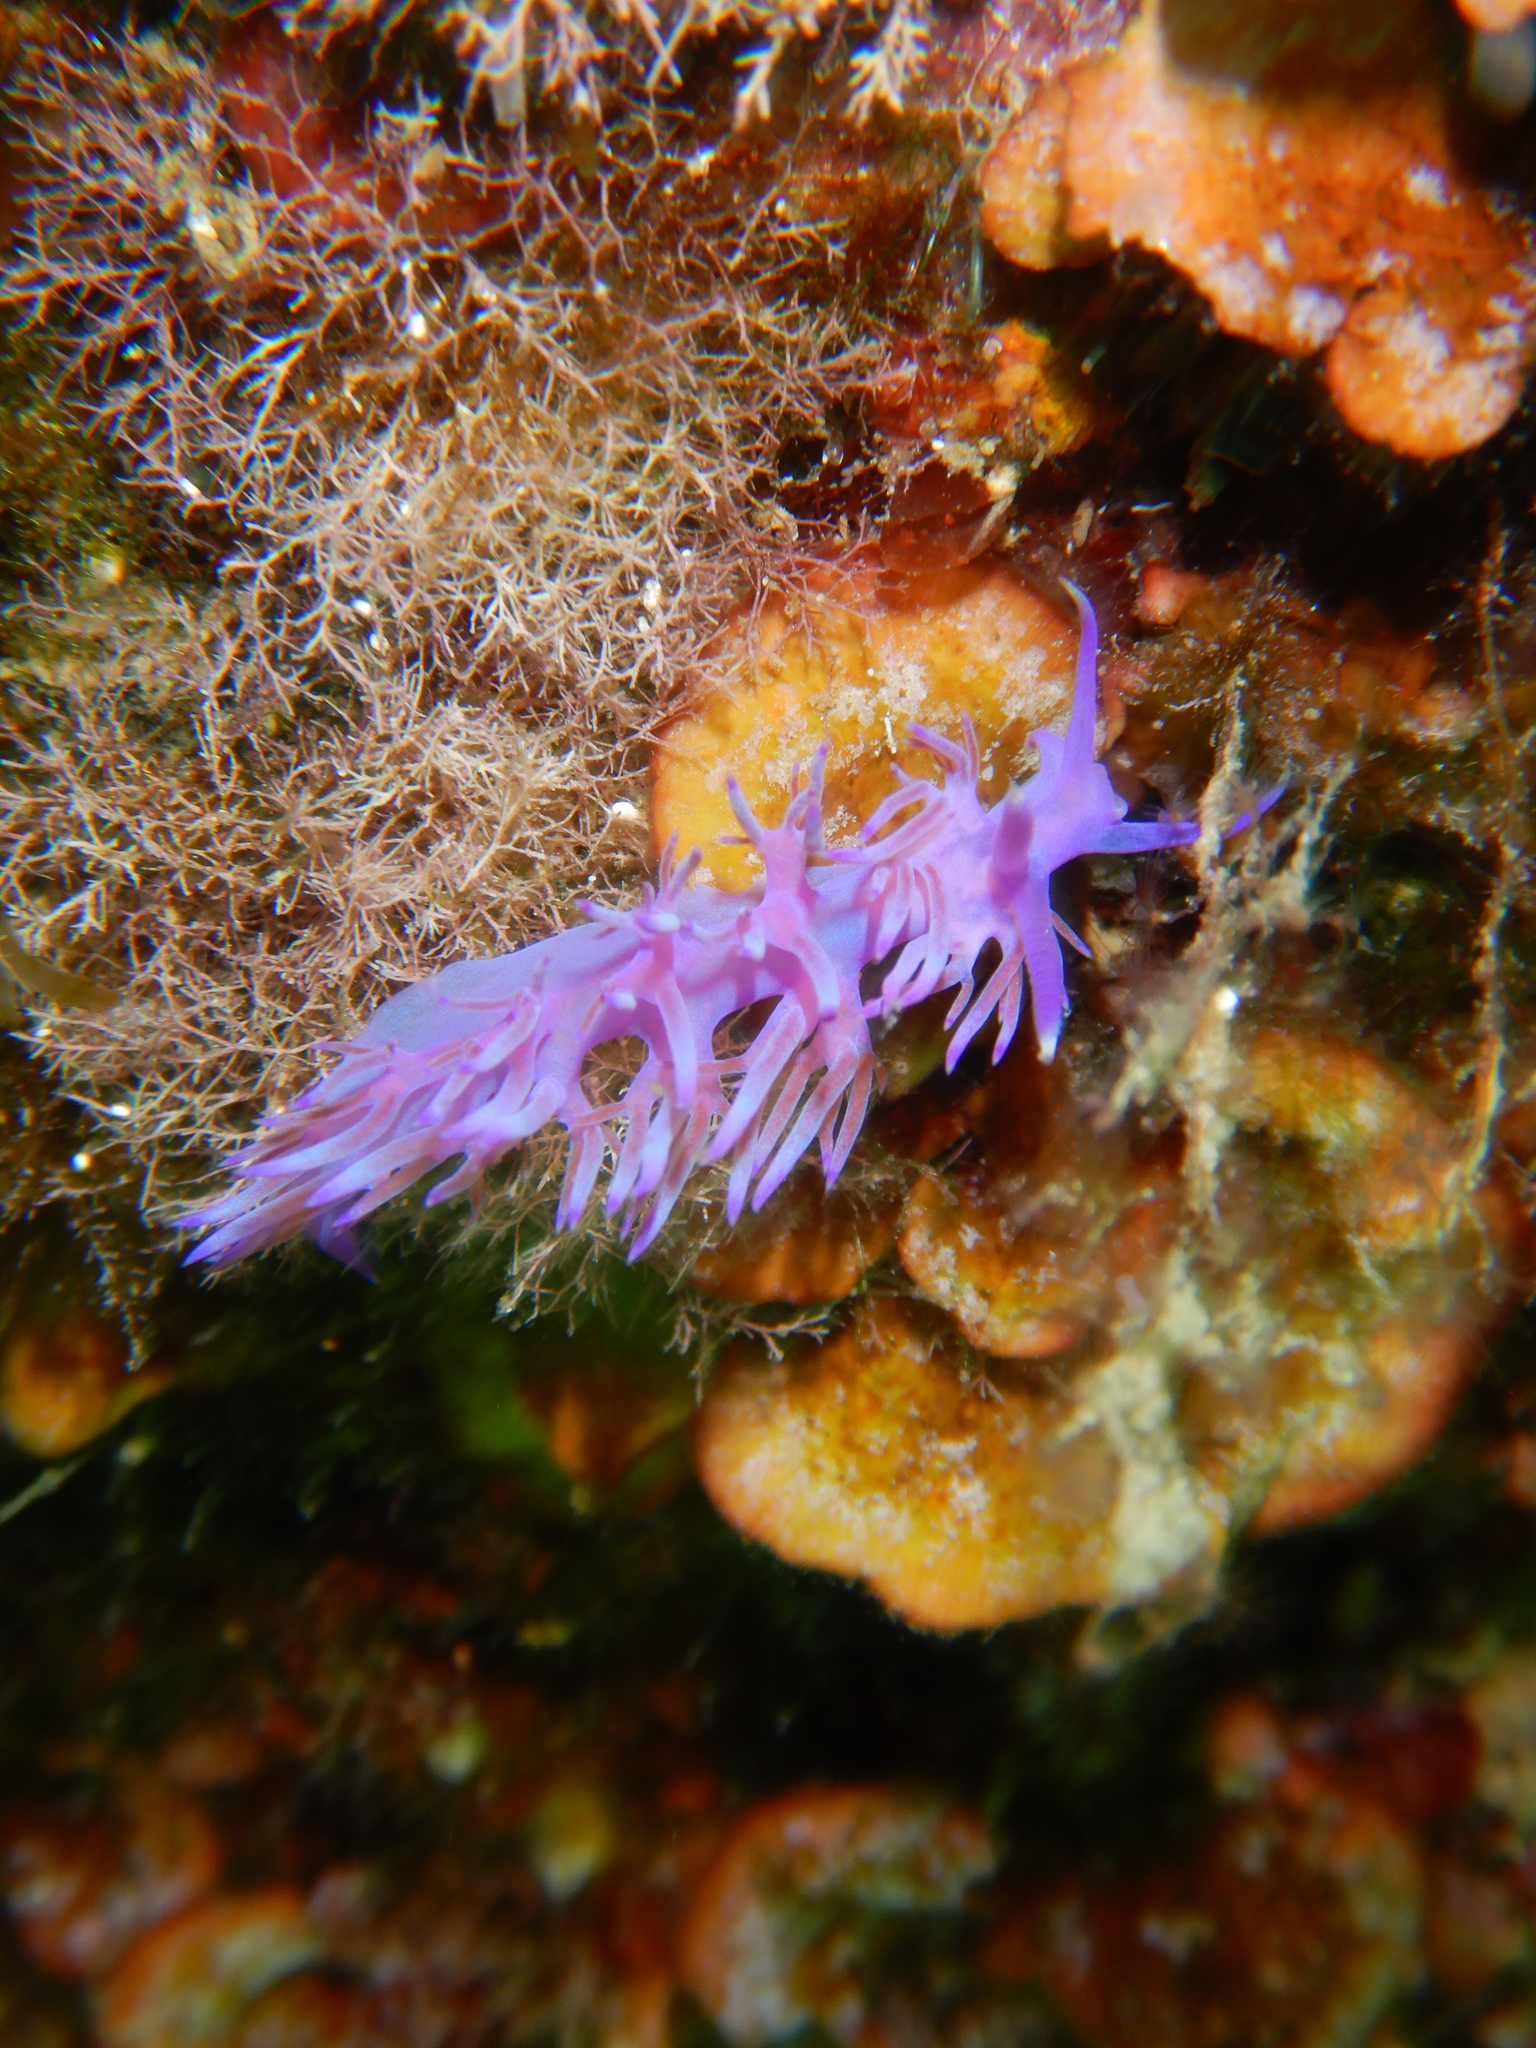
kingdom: Animalia
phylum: Mollusca
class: Gastropoda
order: Nudibranchia
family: Flabellinidae
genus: Flabellina
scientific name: Flabellina affinis
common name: Mediterranean violet aeolid
